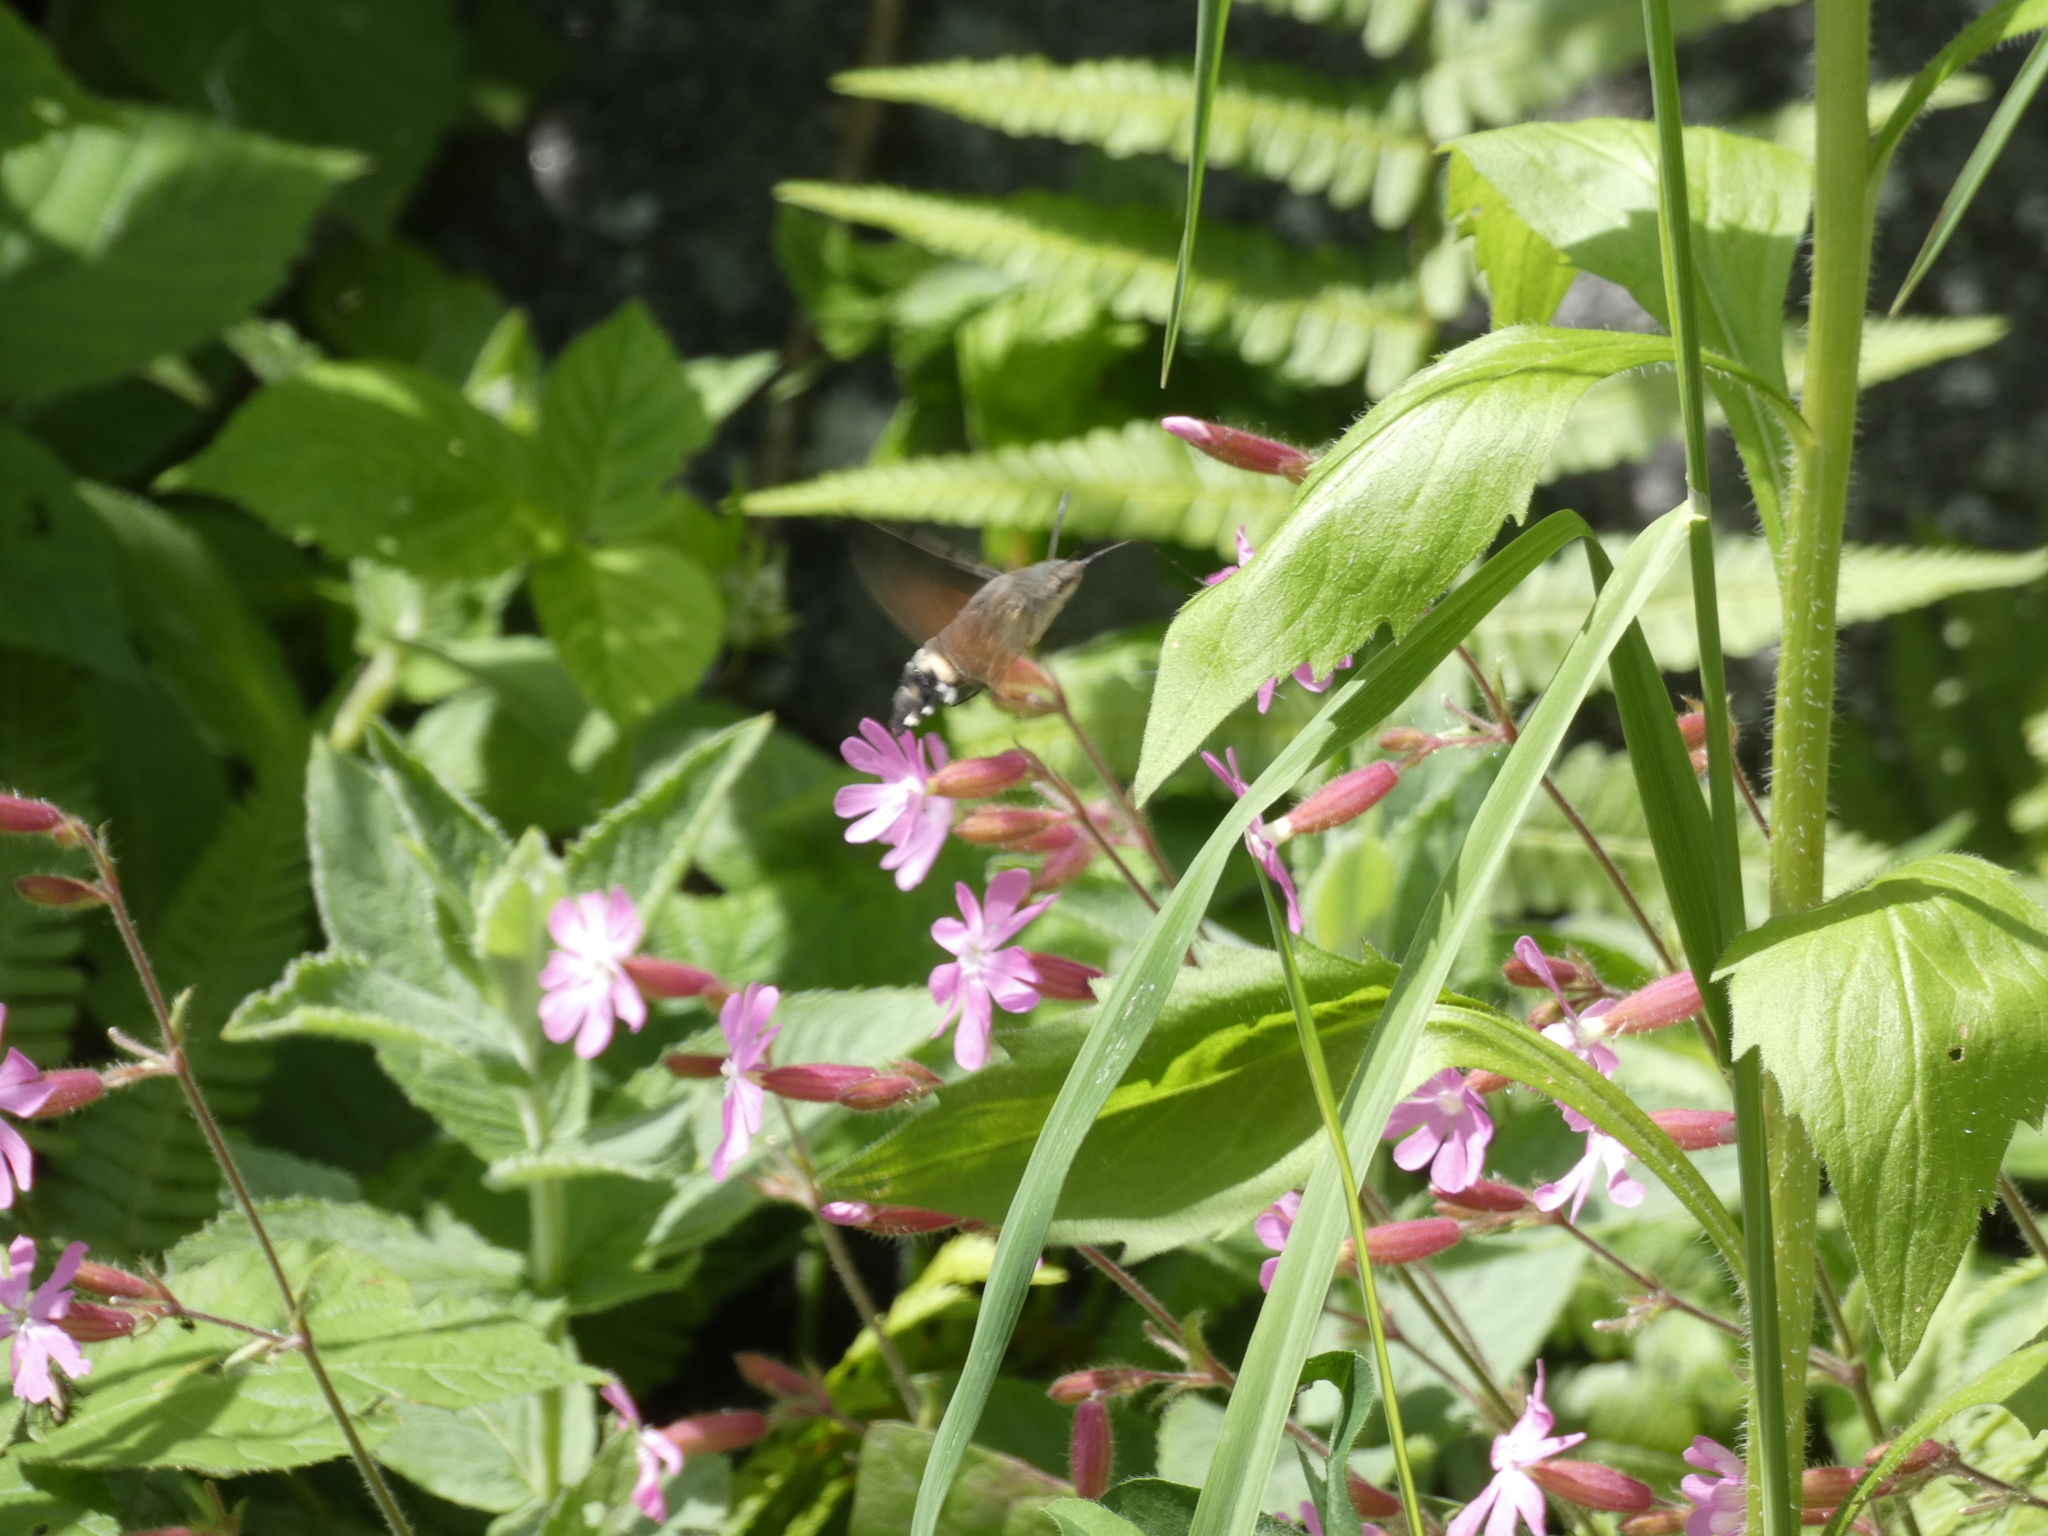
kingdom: Animalia
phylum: Arthropoda
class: Insecta
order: Lepidoptera
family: Sphingidae
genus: Macroglossum
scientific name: Macroglossum stellatarum
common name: Humming-bird hawk-moth
